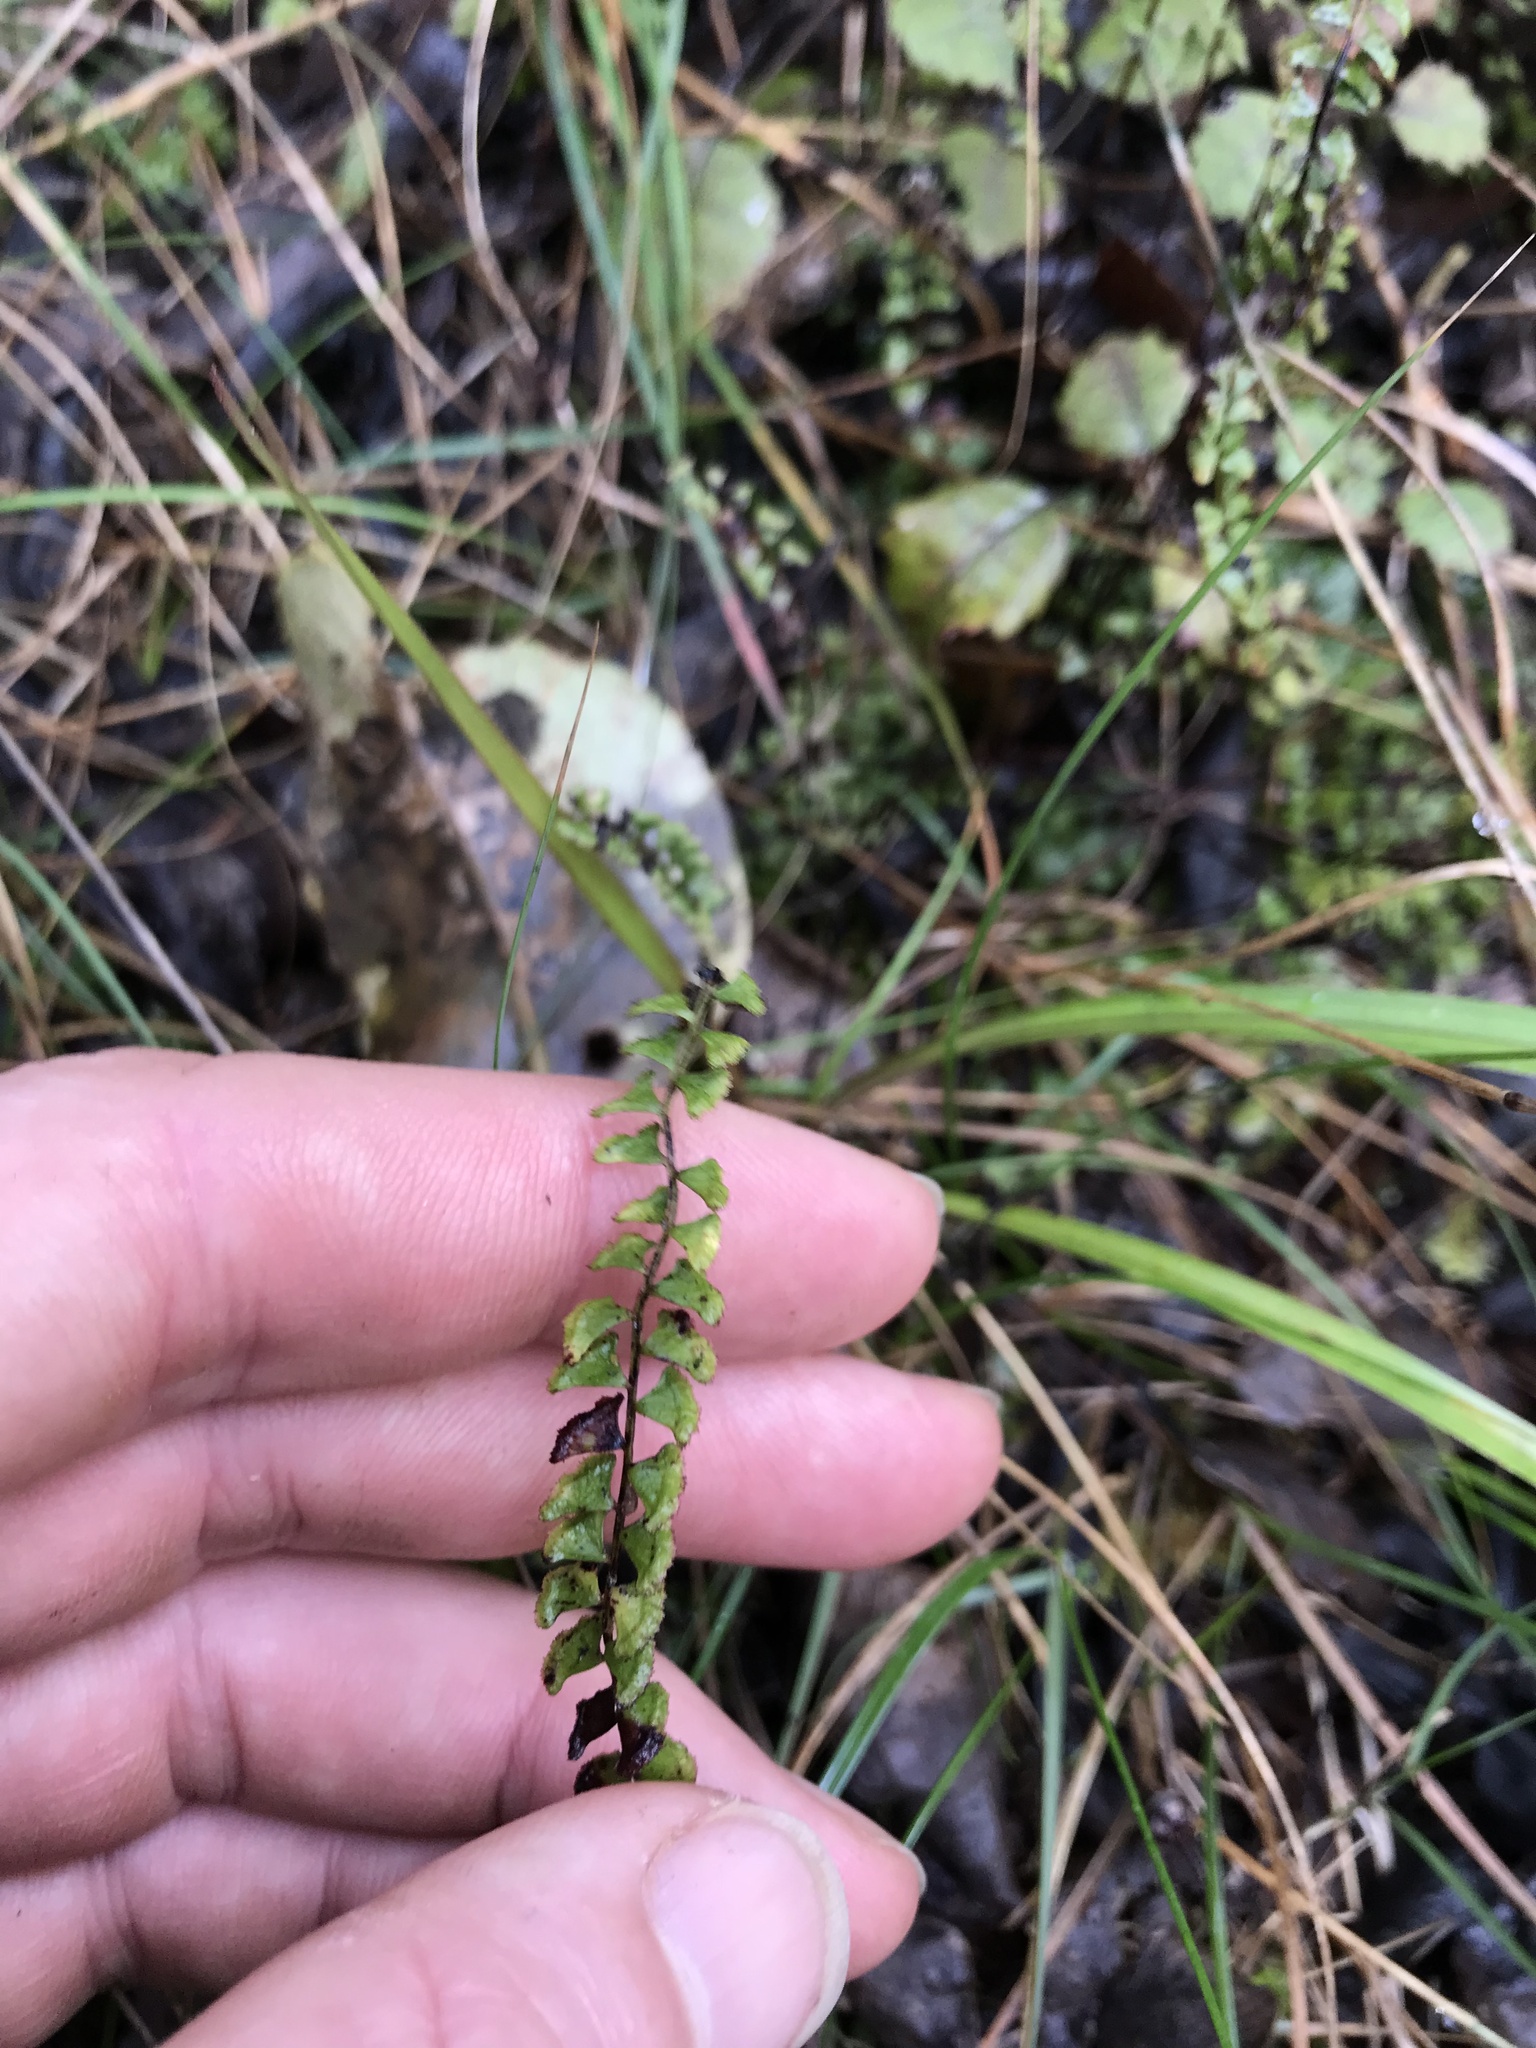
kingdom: Plantae
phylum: Tracheophyta
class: Polypodiopsida
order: Polypodiales
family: Lindsaeaceae
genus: Lindsaea
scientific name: Lindsaea linearis
